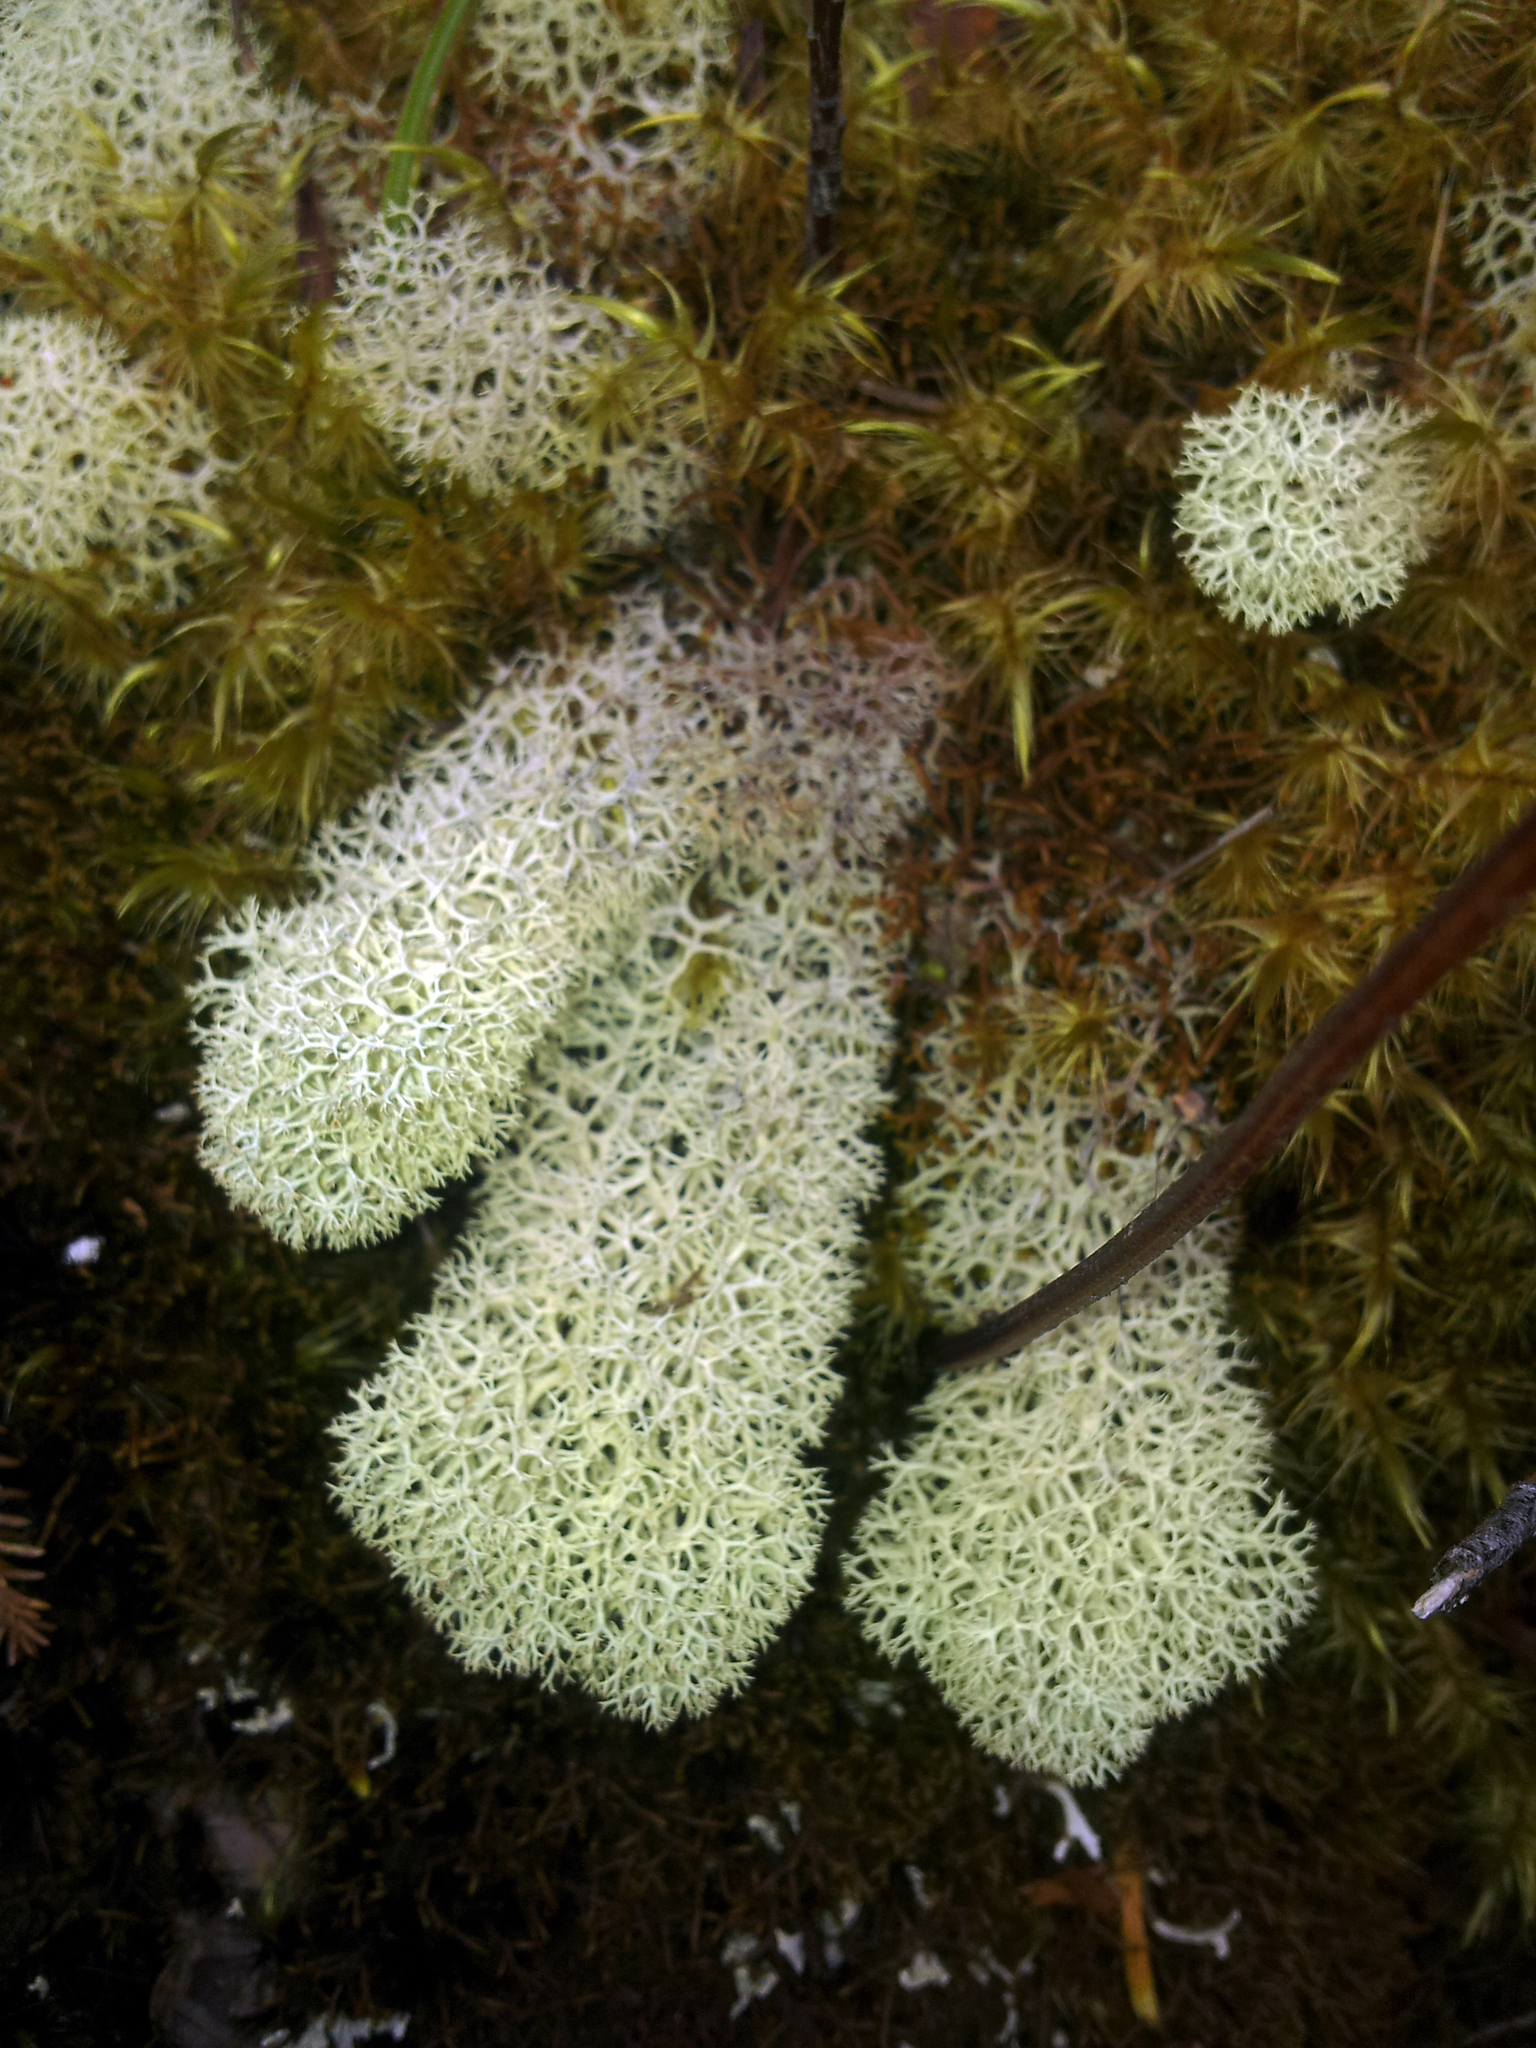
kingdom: Fungi
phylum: Ascomycota
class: Lecanoromycetes
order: Lecanorales
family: Cladoniaceae
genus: Cladonia
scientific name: Cladonia confusa
